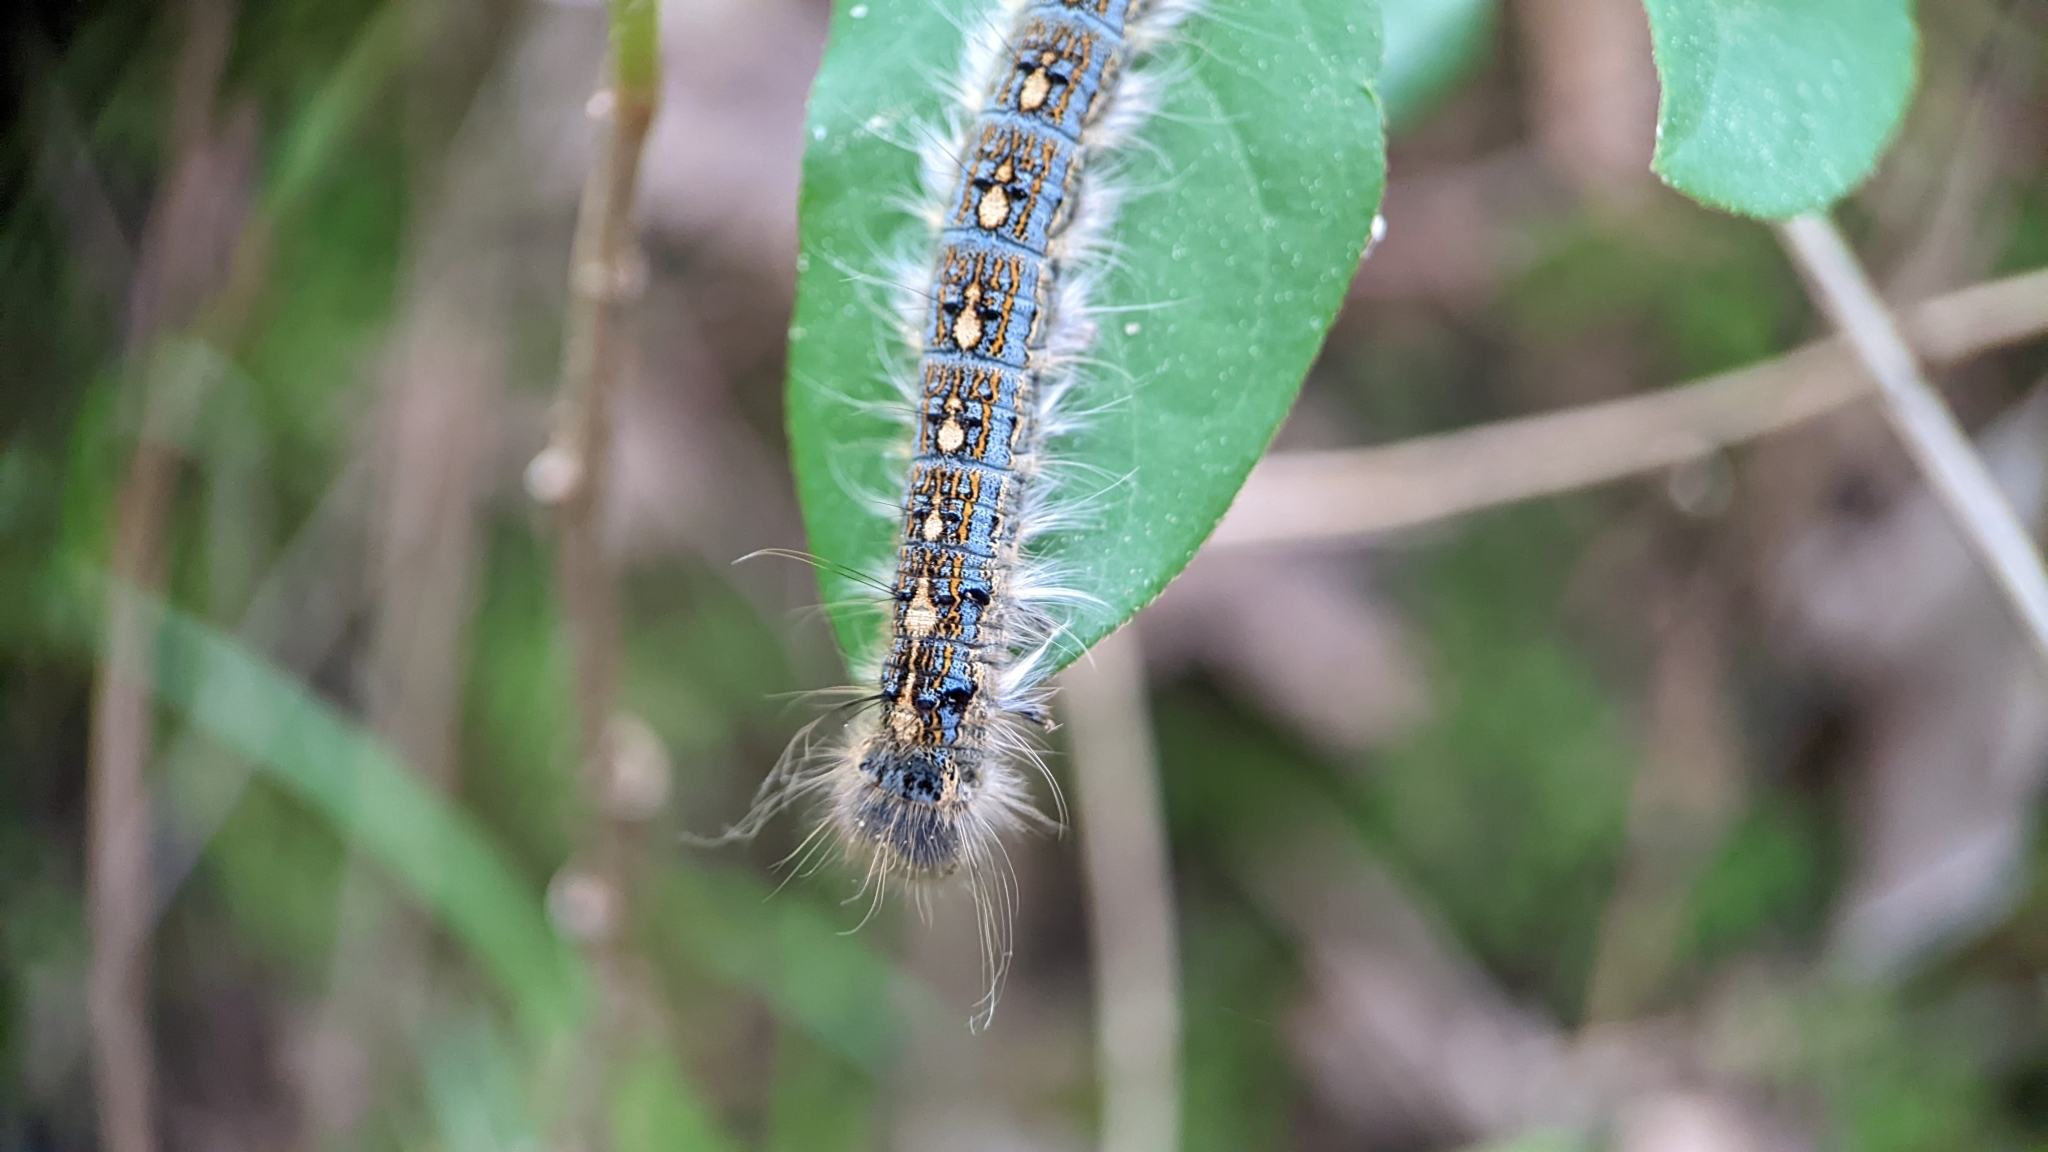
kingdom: Animalia
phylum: Arthropoda
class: Insecta
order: Lepidoptera
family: Lasiocampidae
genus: Malacosoma
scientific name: Malacosoma disstria
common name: Forest tent caterpillar
